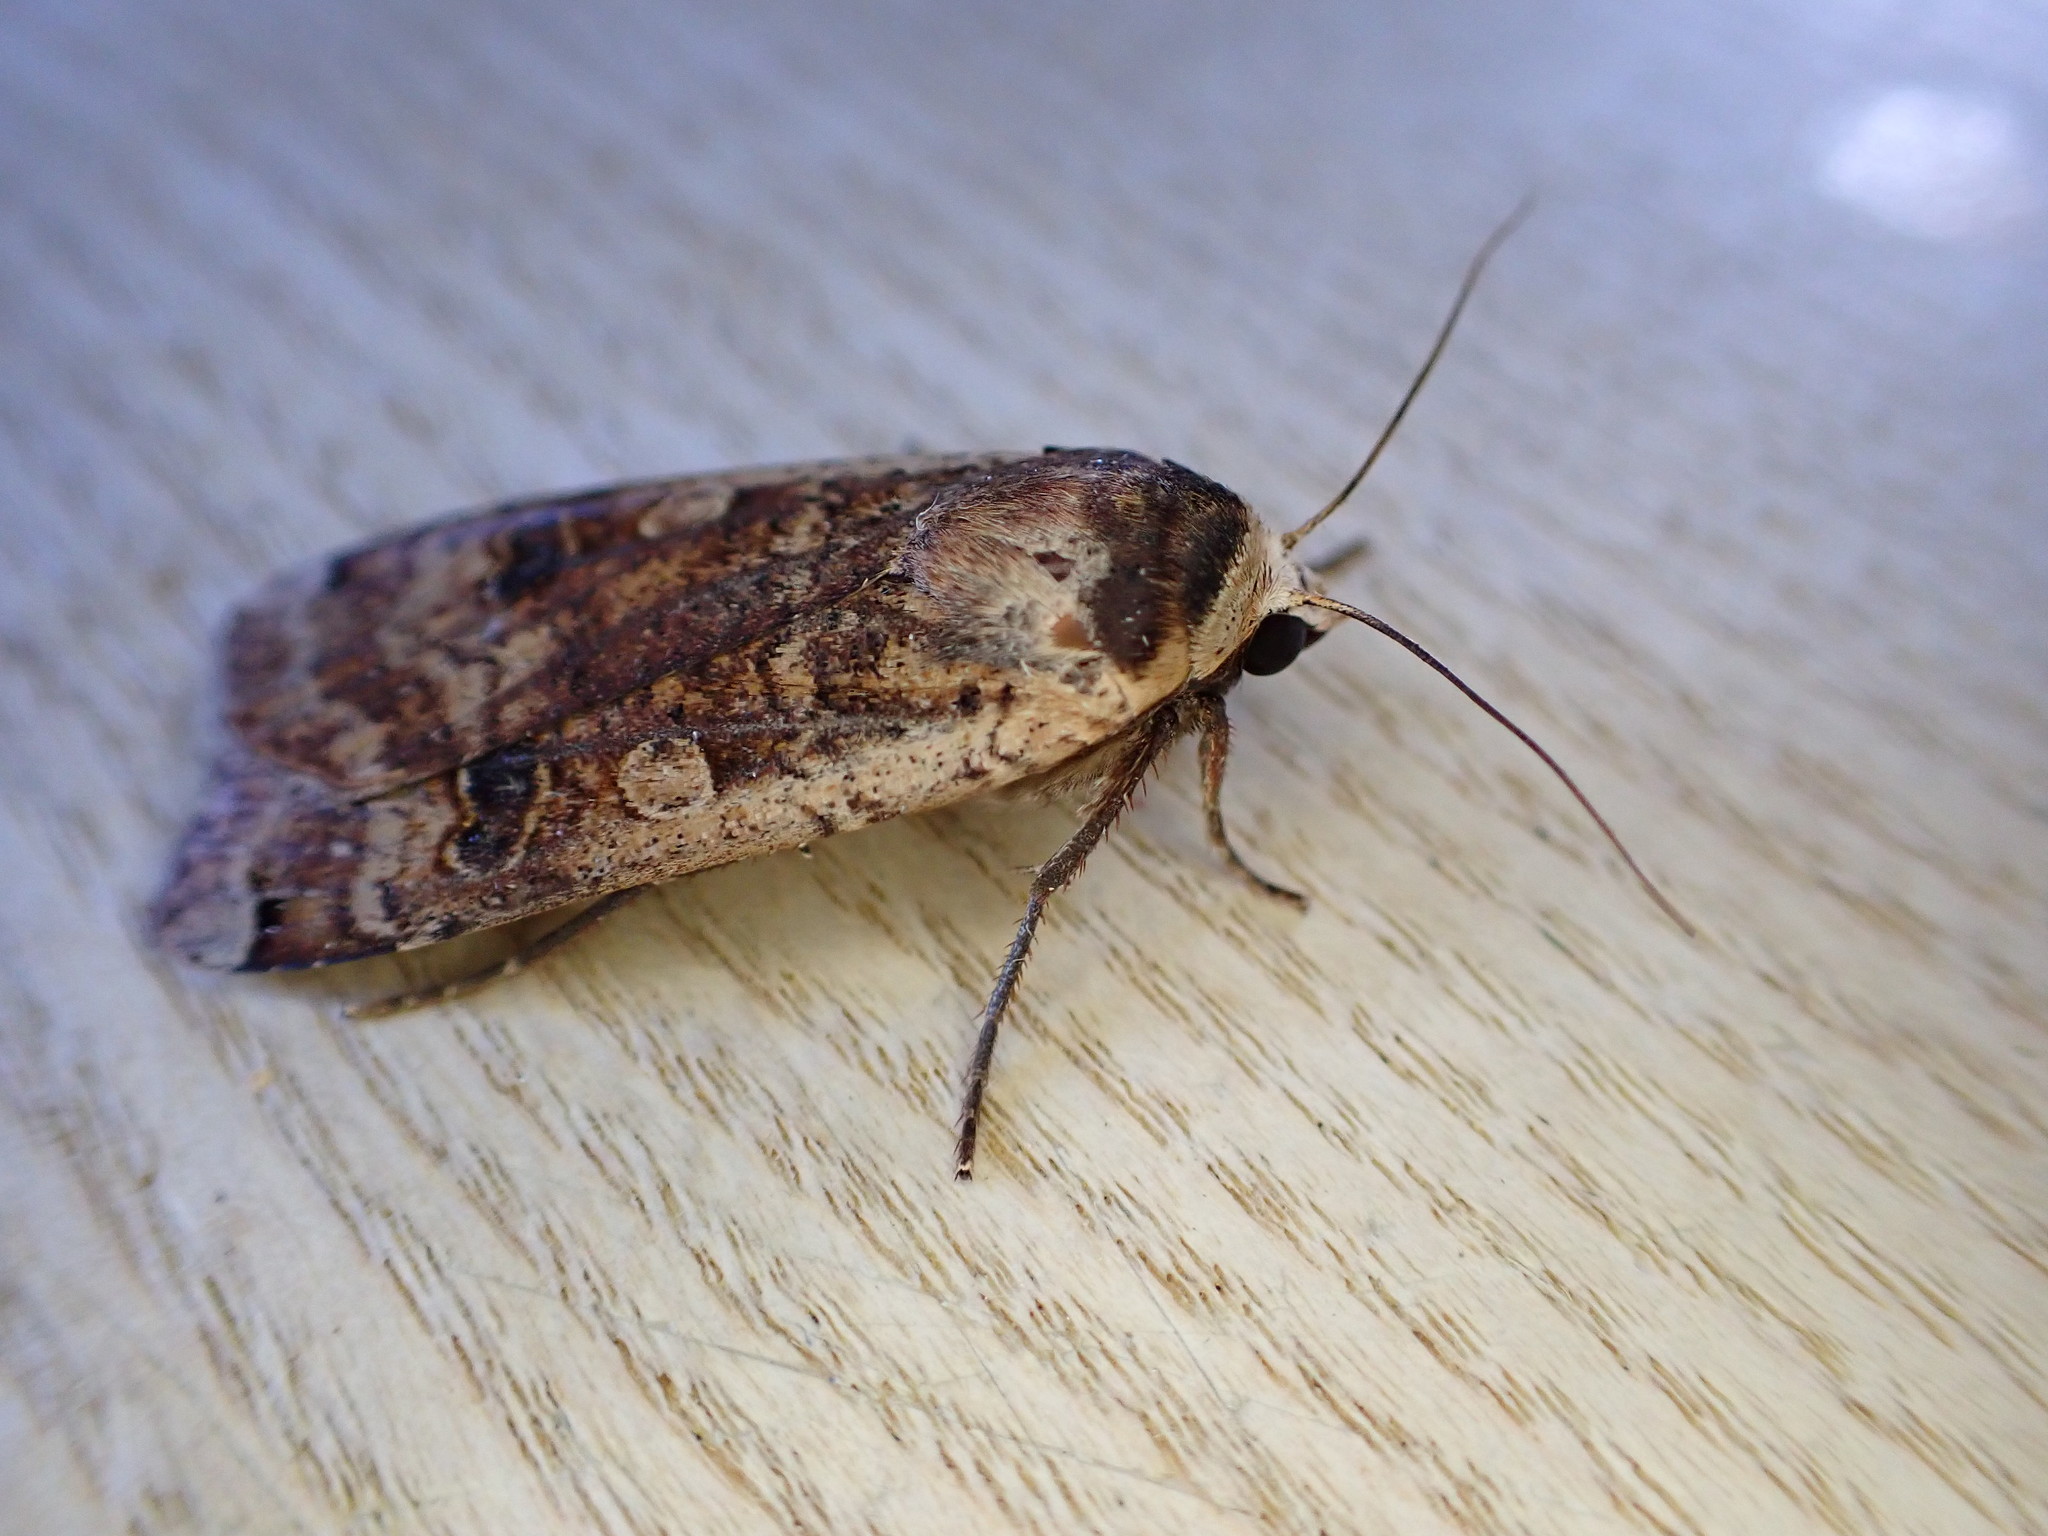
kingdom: Animalia
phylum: Arthropoda
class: Insecta
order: Lepidoptera
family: Noctuidae
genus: Noctua
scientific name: Noctua pronuba
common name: Large yellow underwing
